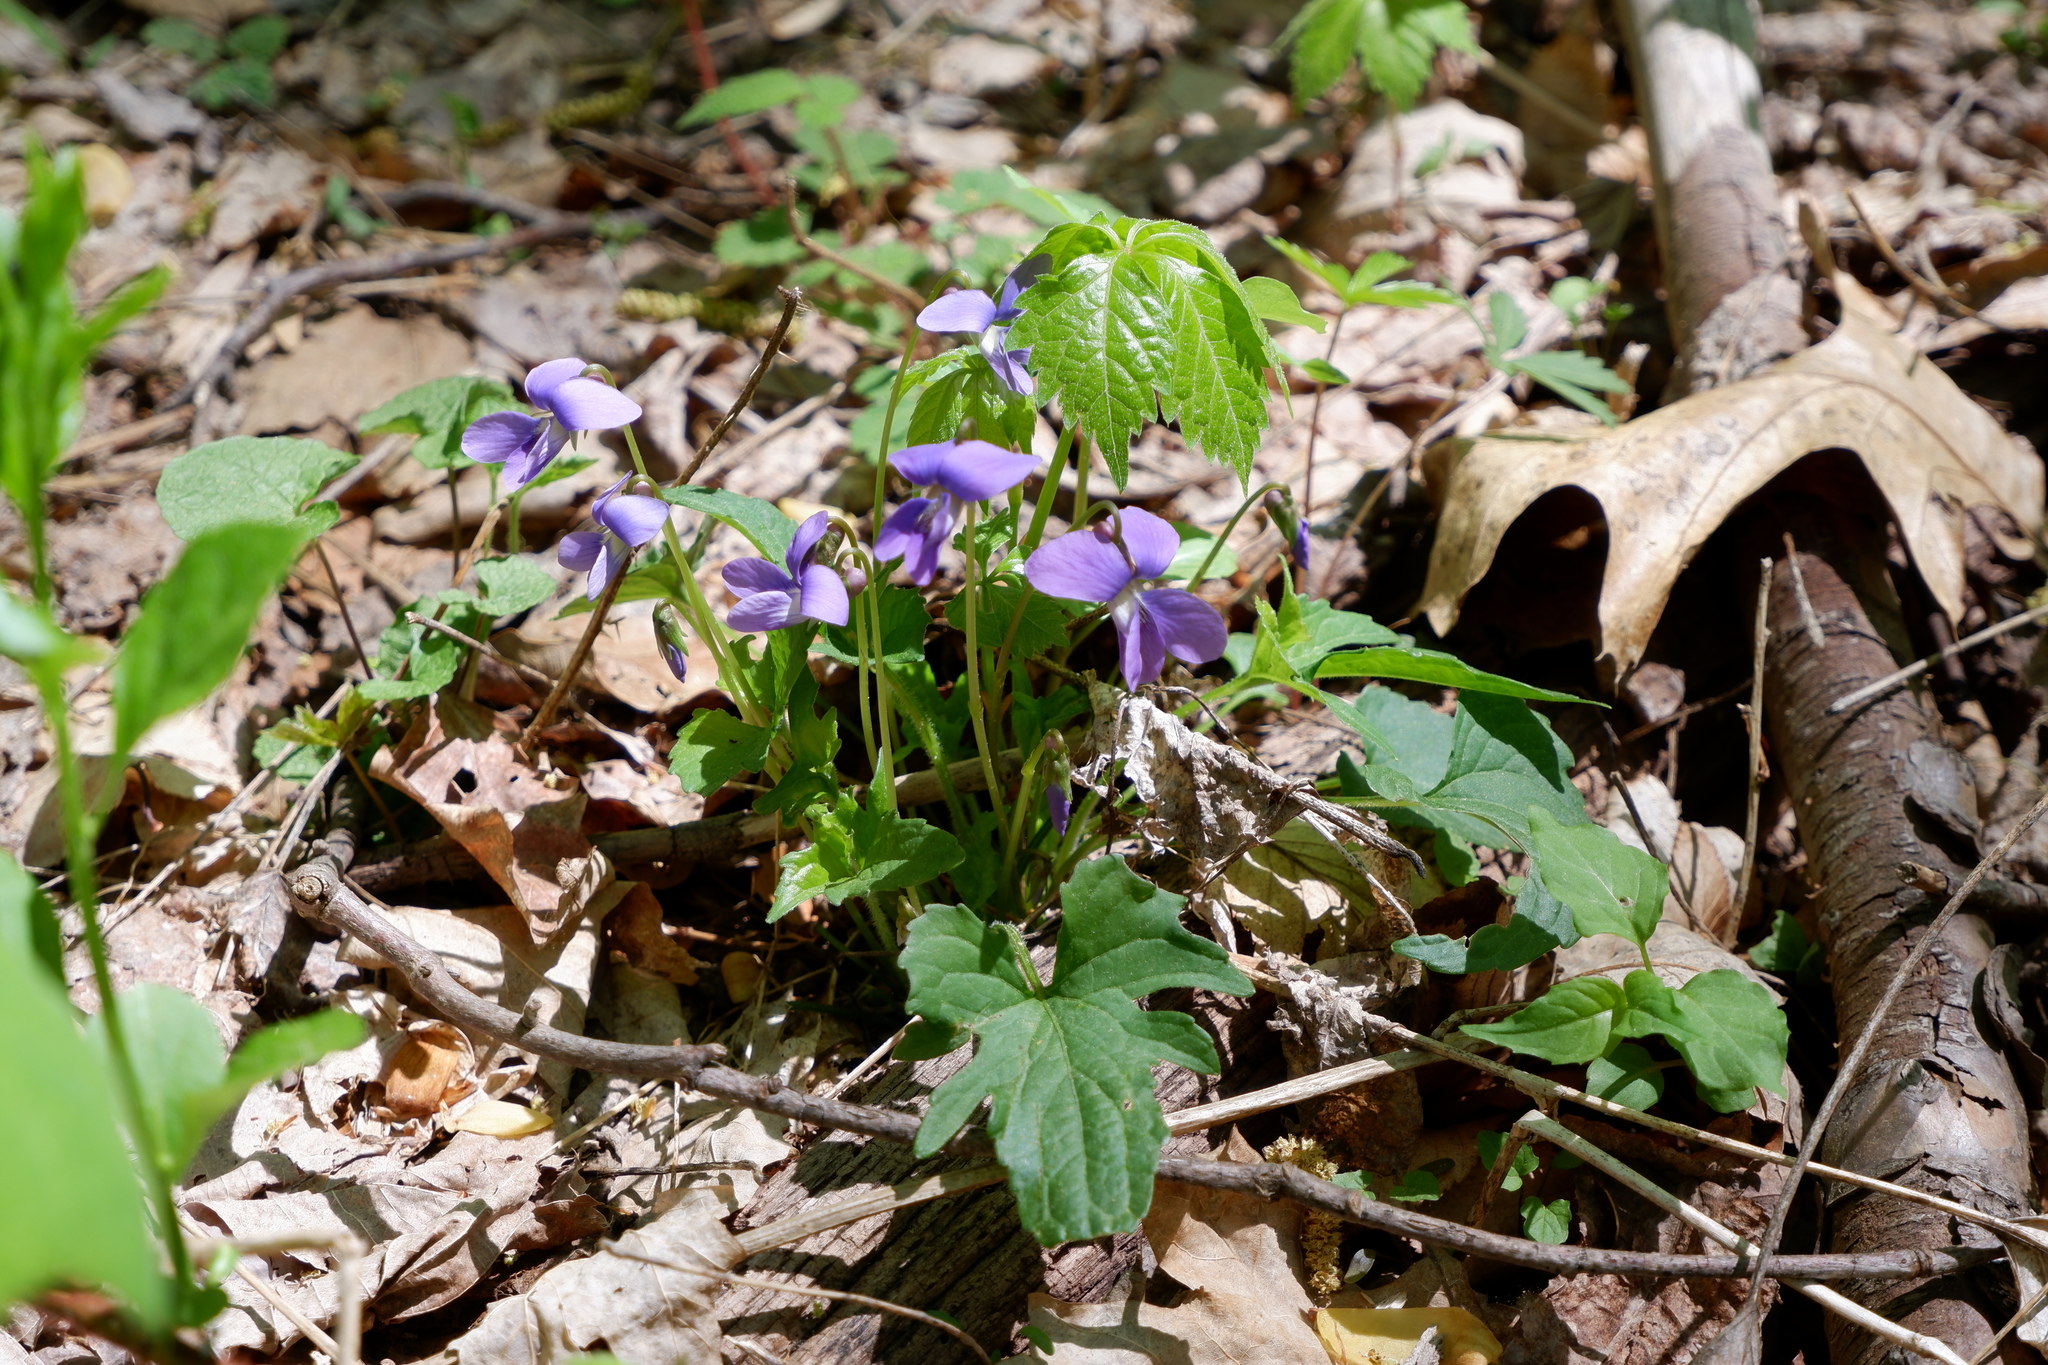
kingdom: Plantae
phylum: Tracheophyta
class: Magnoliopsida
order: Malpighiales
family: Violaceae
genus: Viola
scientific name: Viola palmata
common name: Early blue violet
